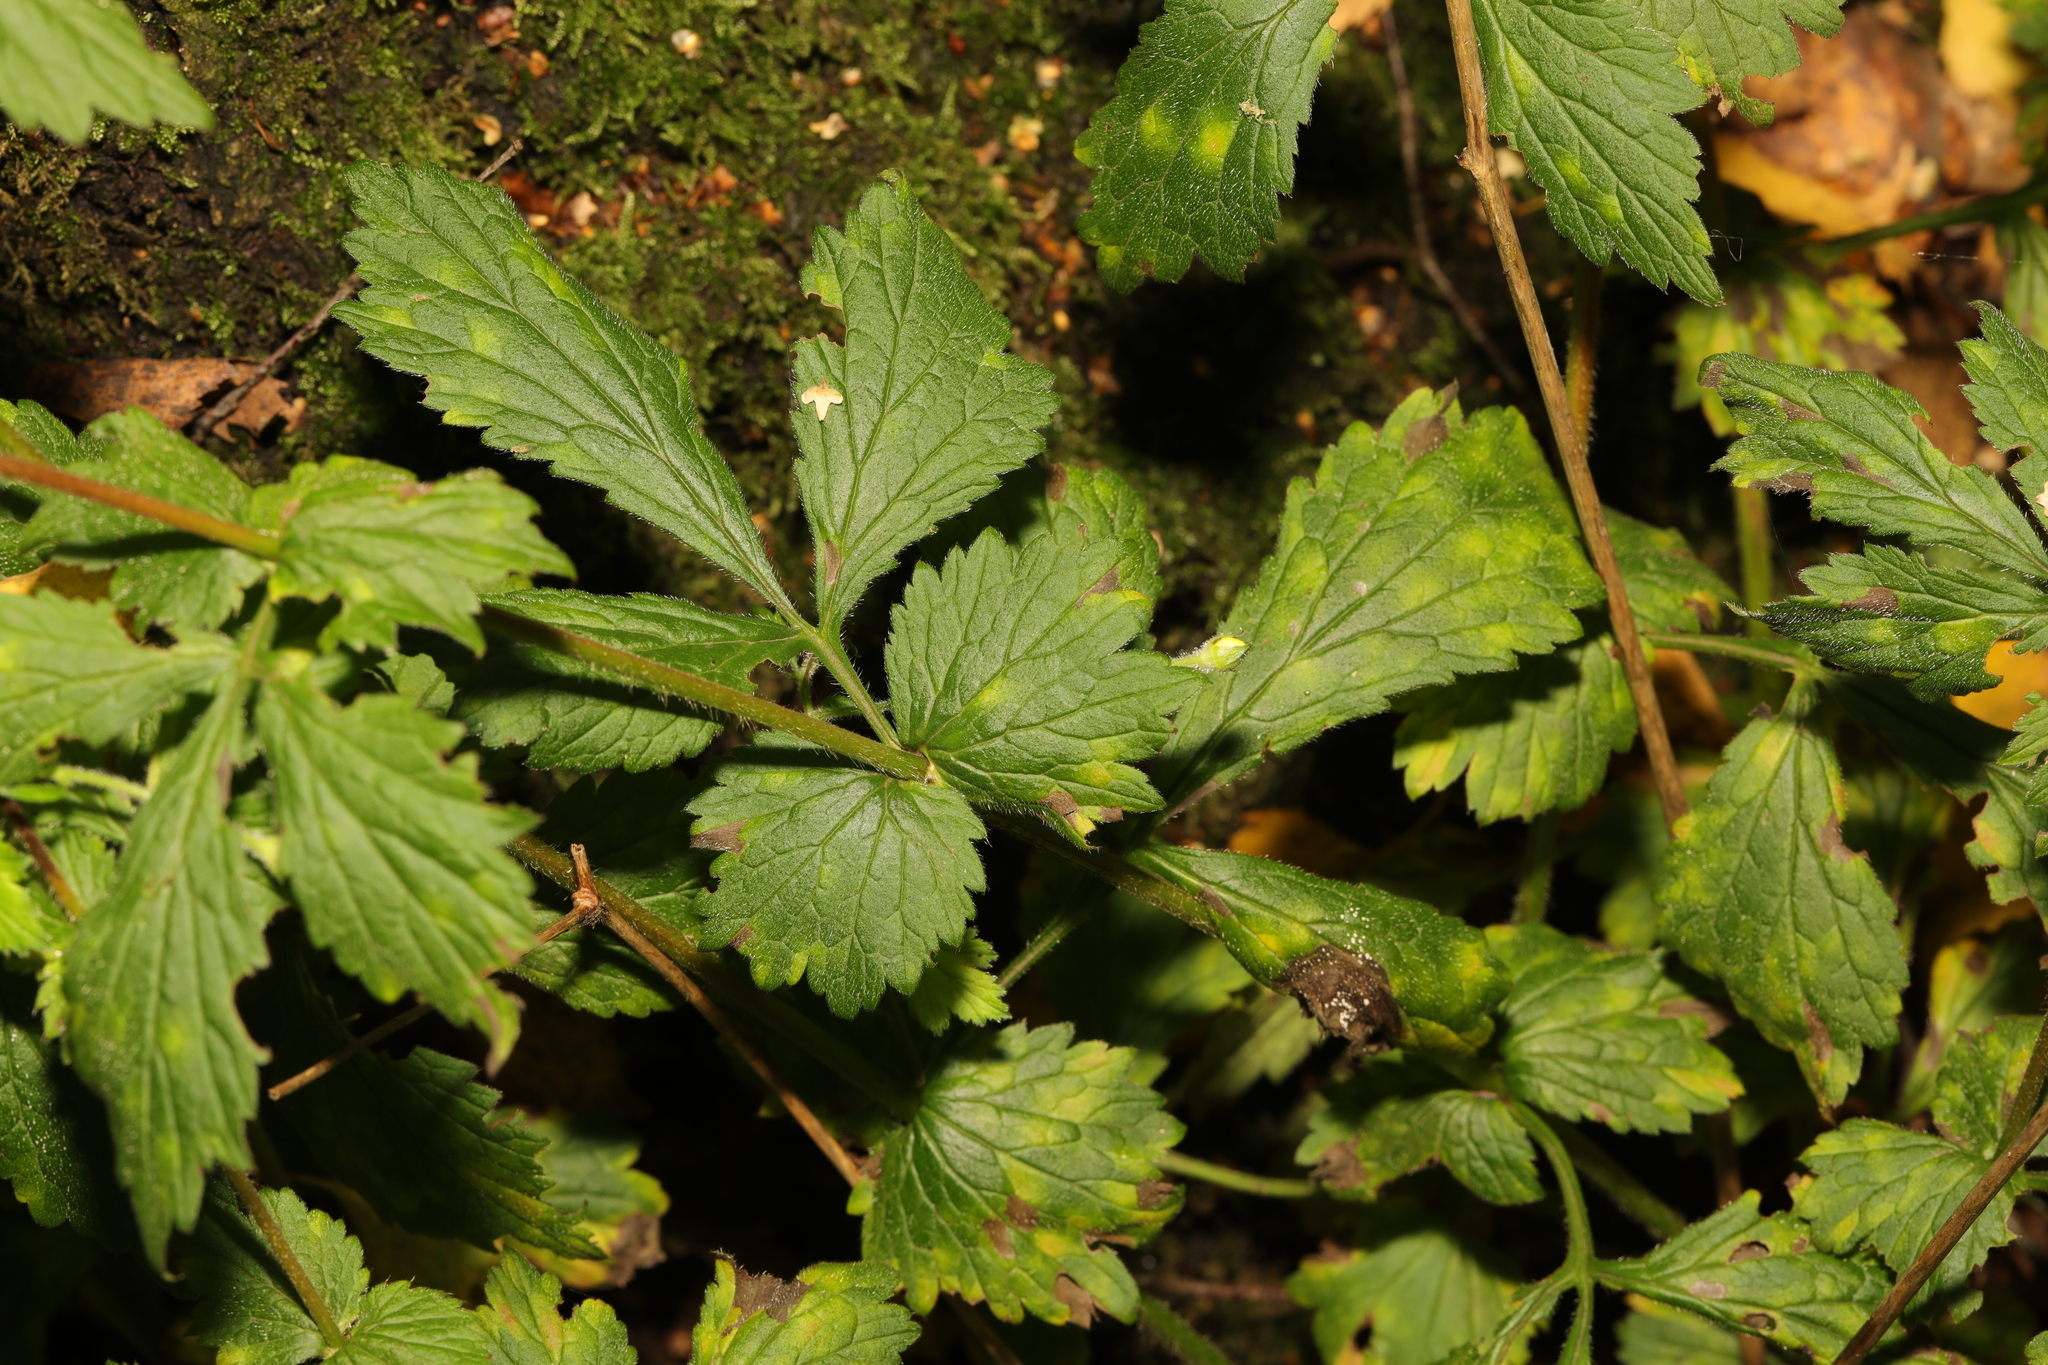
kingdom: Plantae
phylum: Tracheophyta
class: Magnoliopsida
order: Rosales
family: Rosaceae
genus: Geum
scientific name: Geum urbanum
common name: Wood avens
